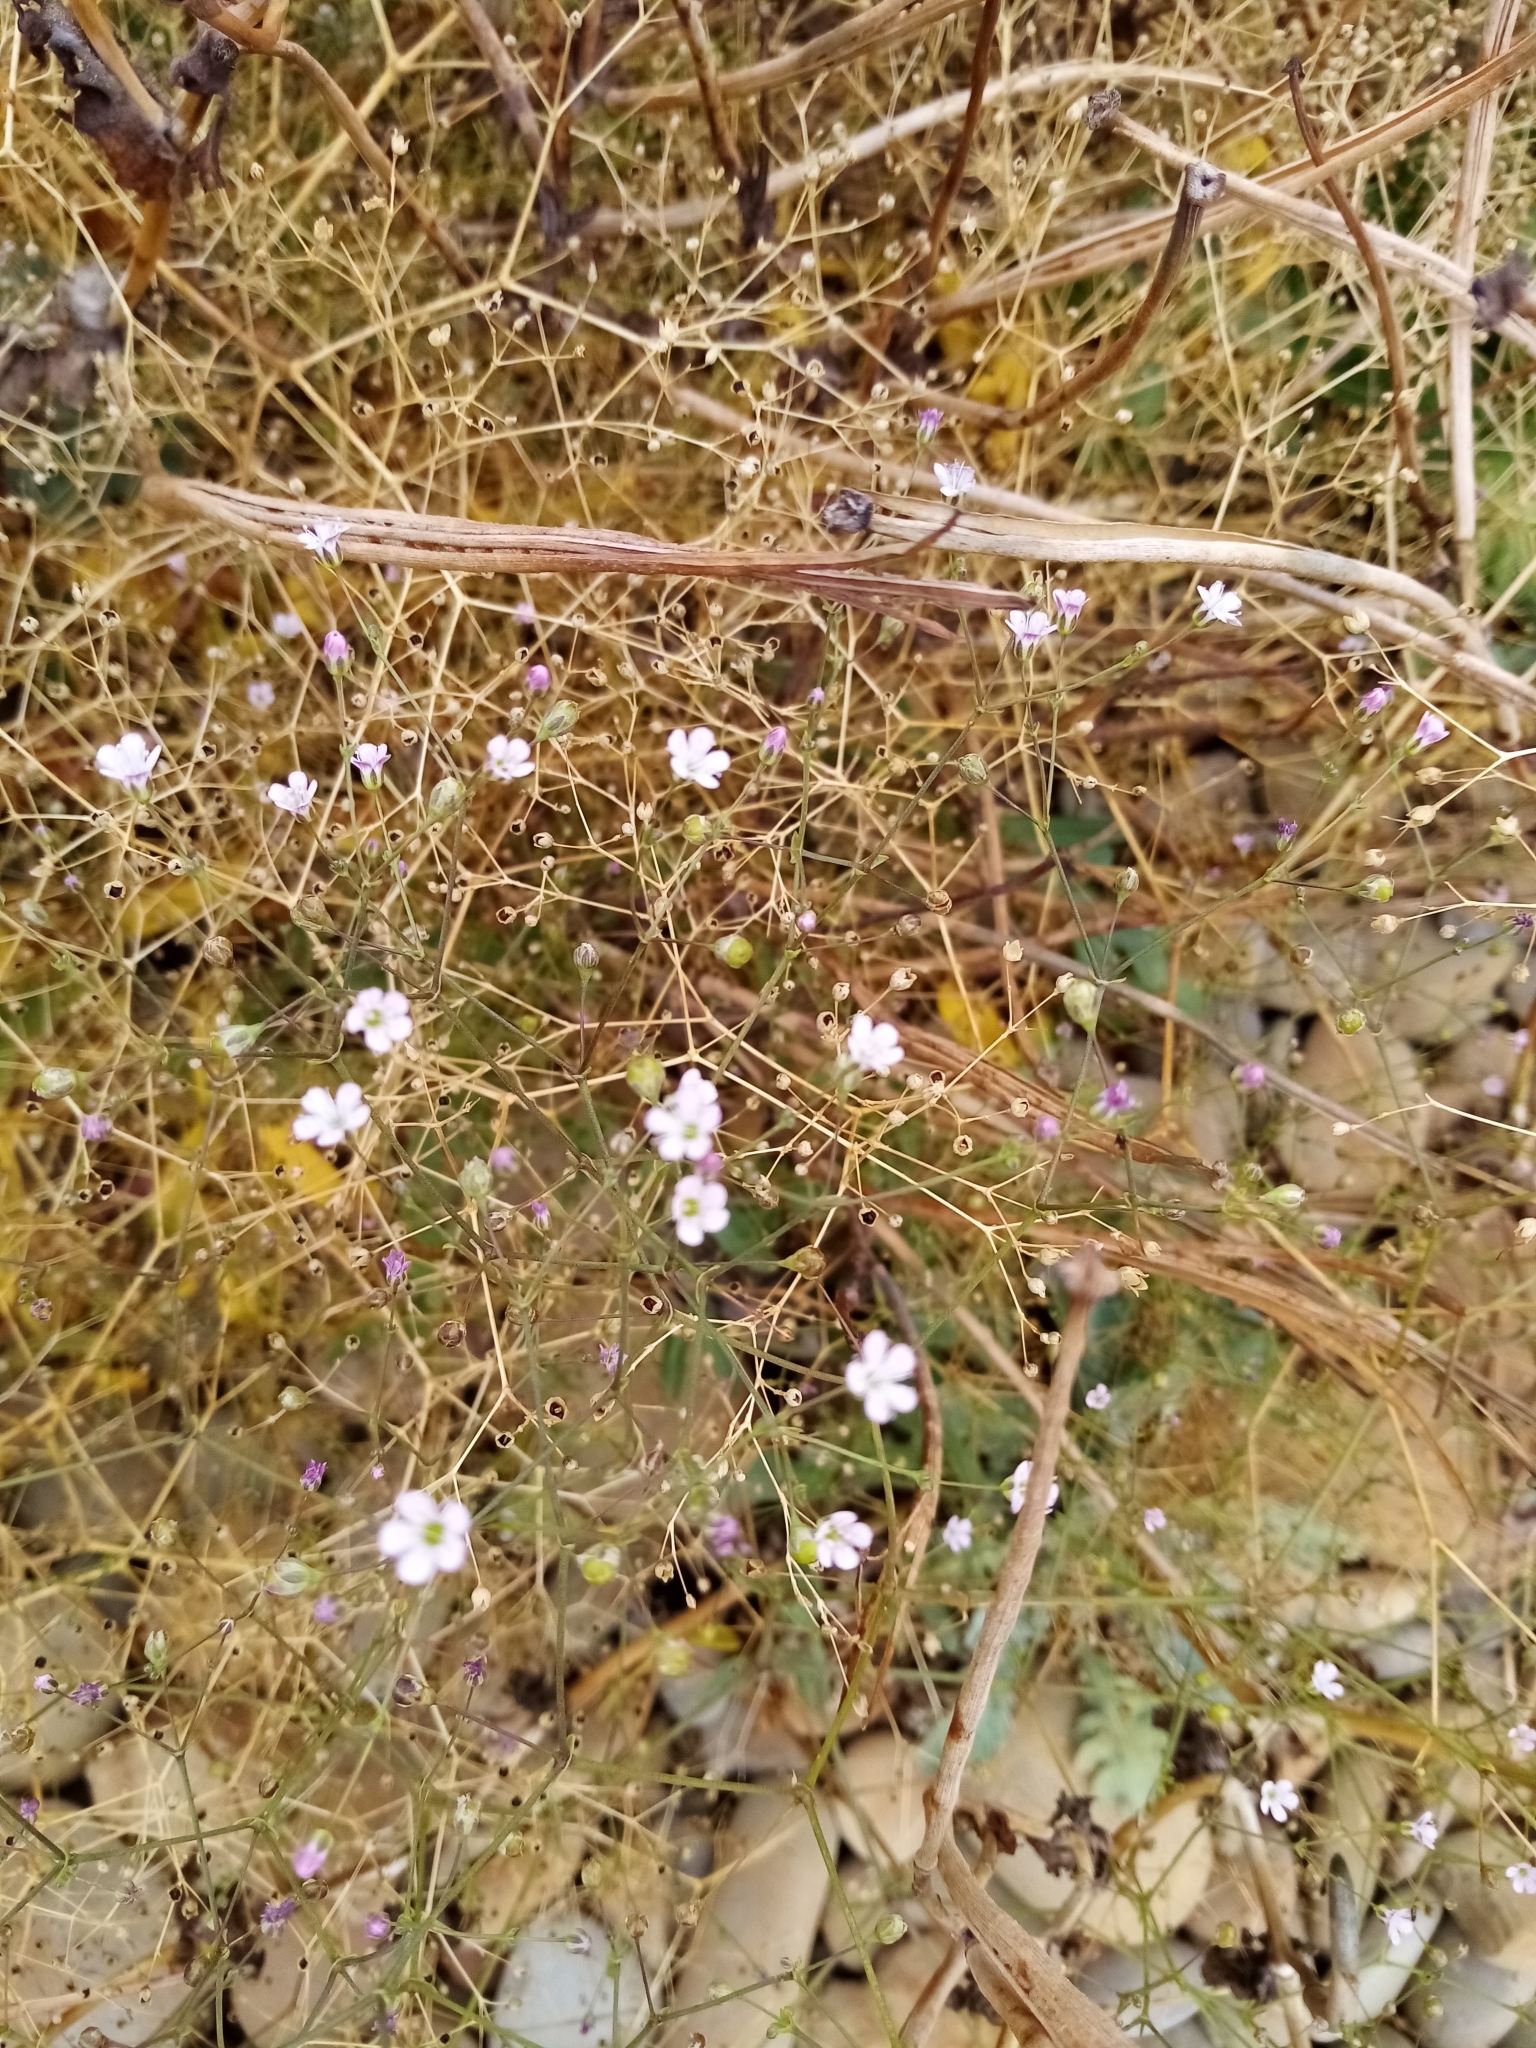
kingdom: Plantae
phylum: Tracheophyta
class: Magnoliopsida
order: Caryophyllales
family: Caryophyllaceae
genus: Gypsophila
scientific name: Gypsophila perfoliata
